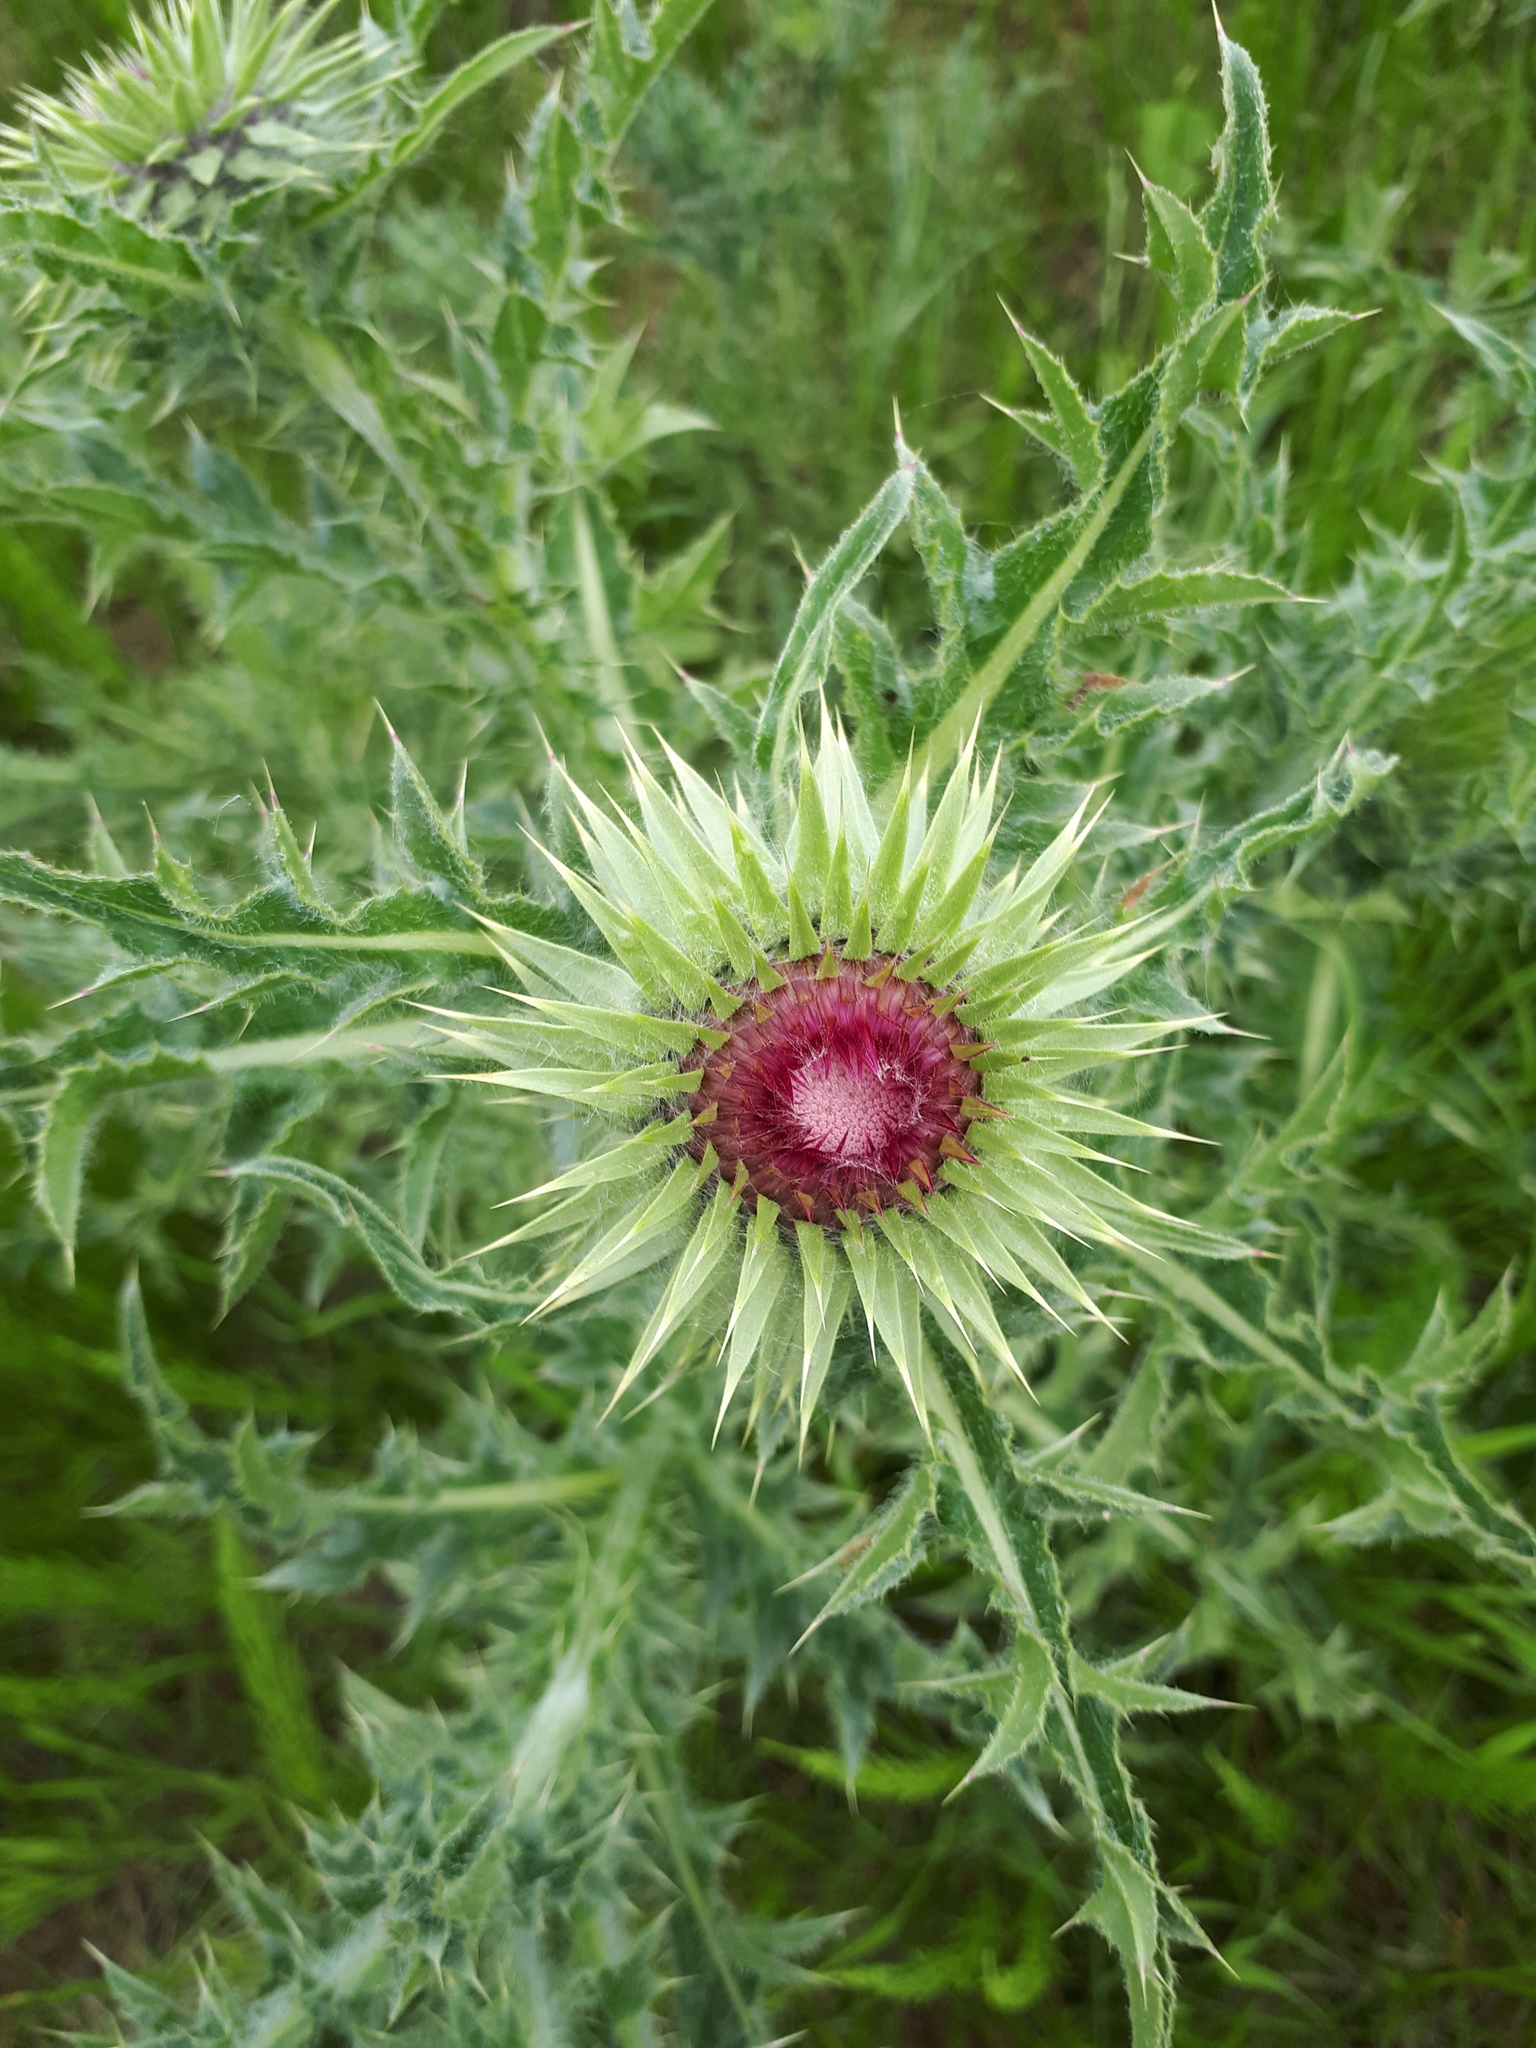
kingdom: Plantae
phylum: Tracheophyta
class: Magnoliopsida
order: Asterales
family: Asteraceae
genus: Carduus
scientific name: Carduus nutans
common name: Musk thistle
